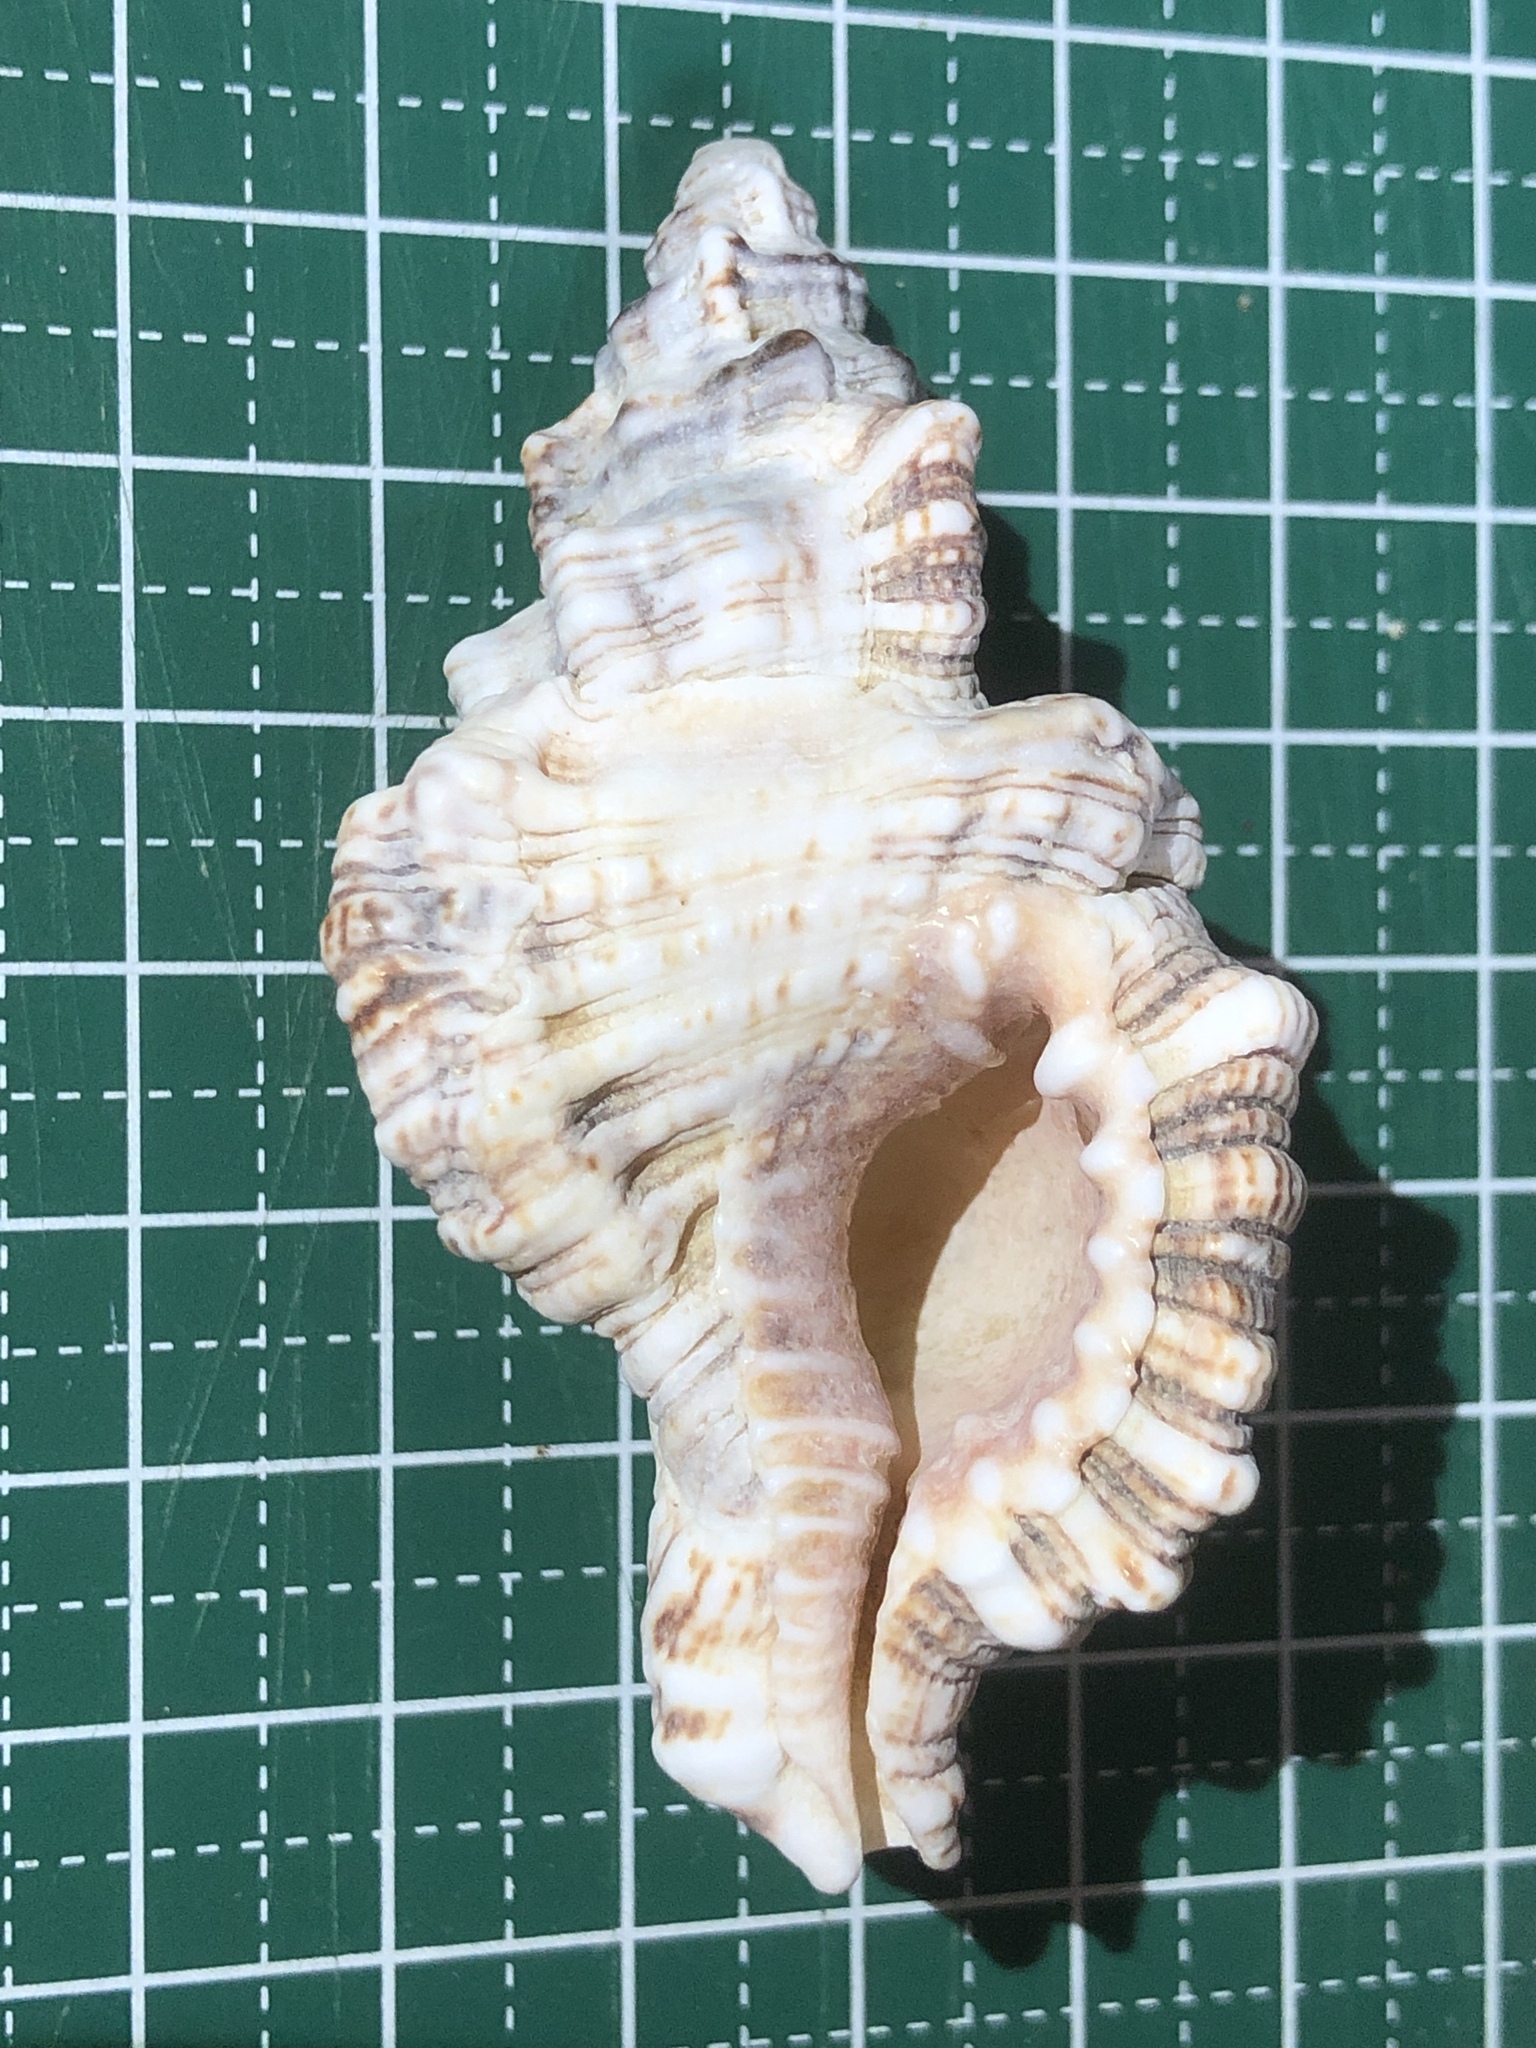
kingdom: Animalia
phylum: Mollusca
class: Gastropoda
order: Littorinimorpha
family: Cymatiidae
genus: Monoplex
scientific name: Monoplex nicobaricus
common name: Goldmouth triton
